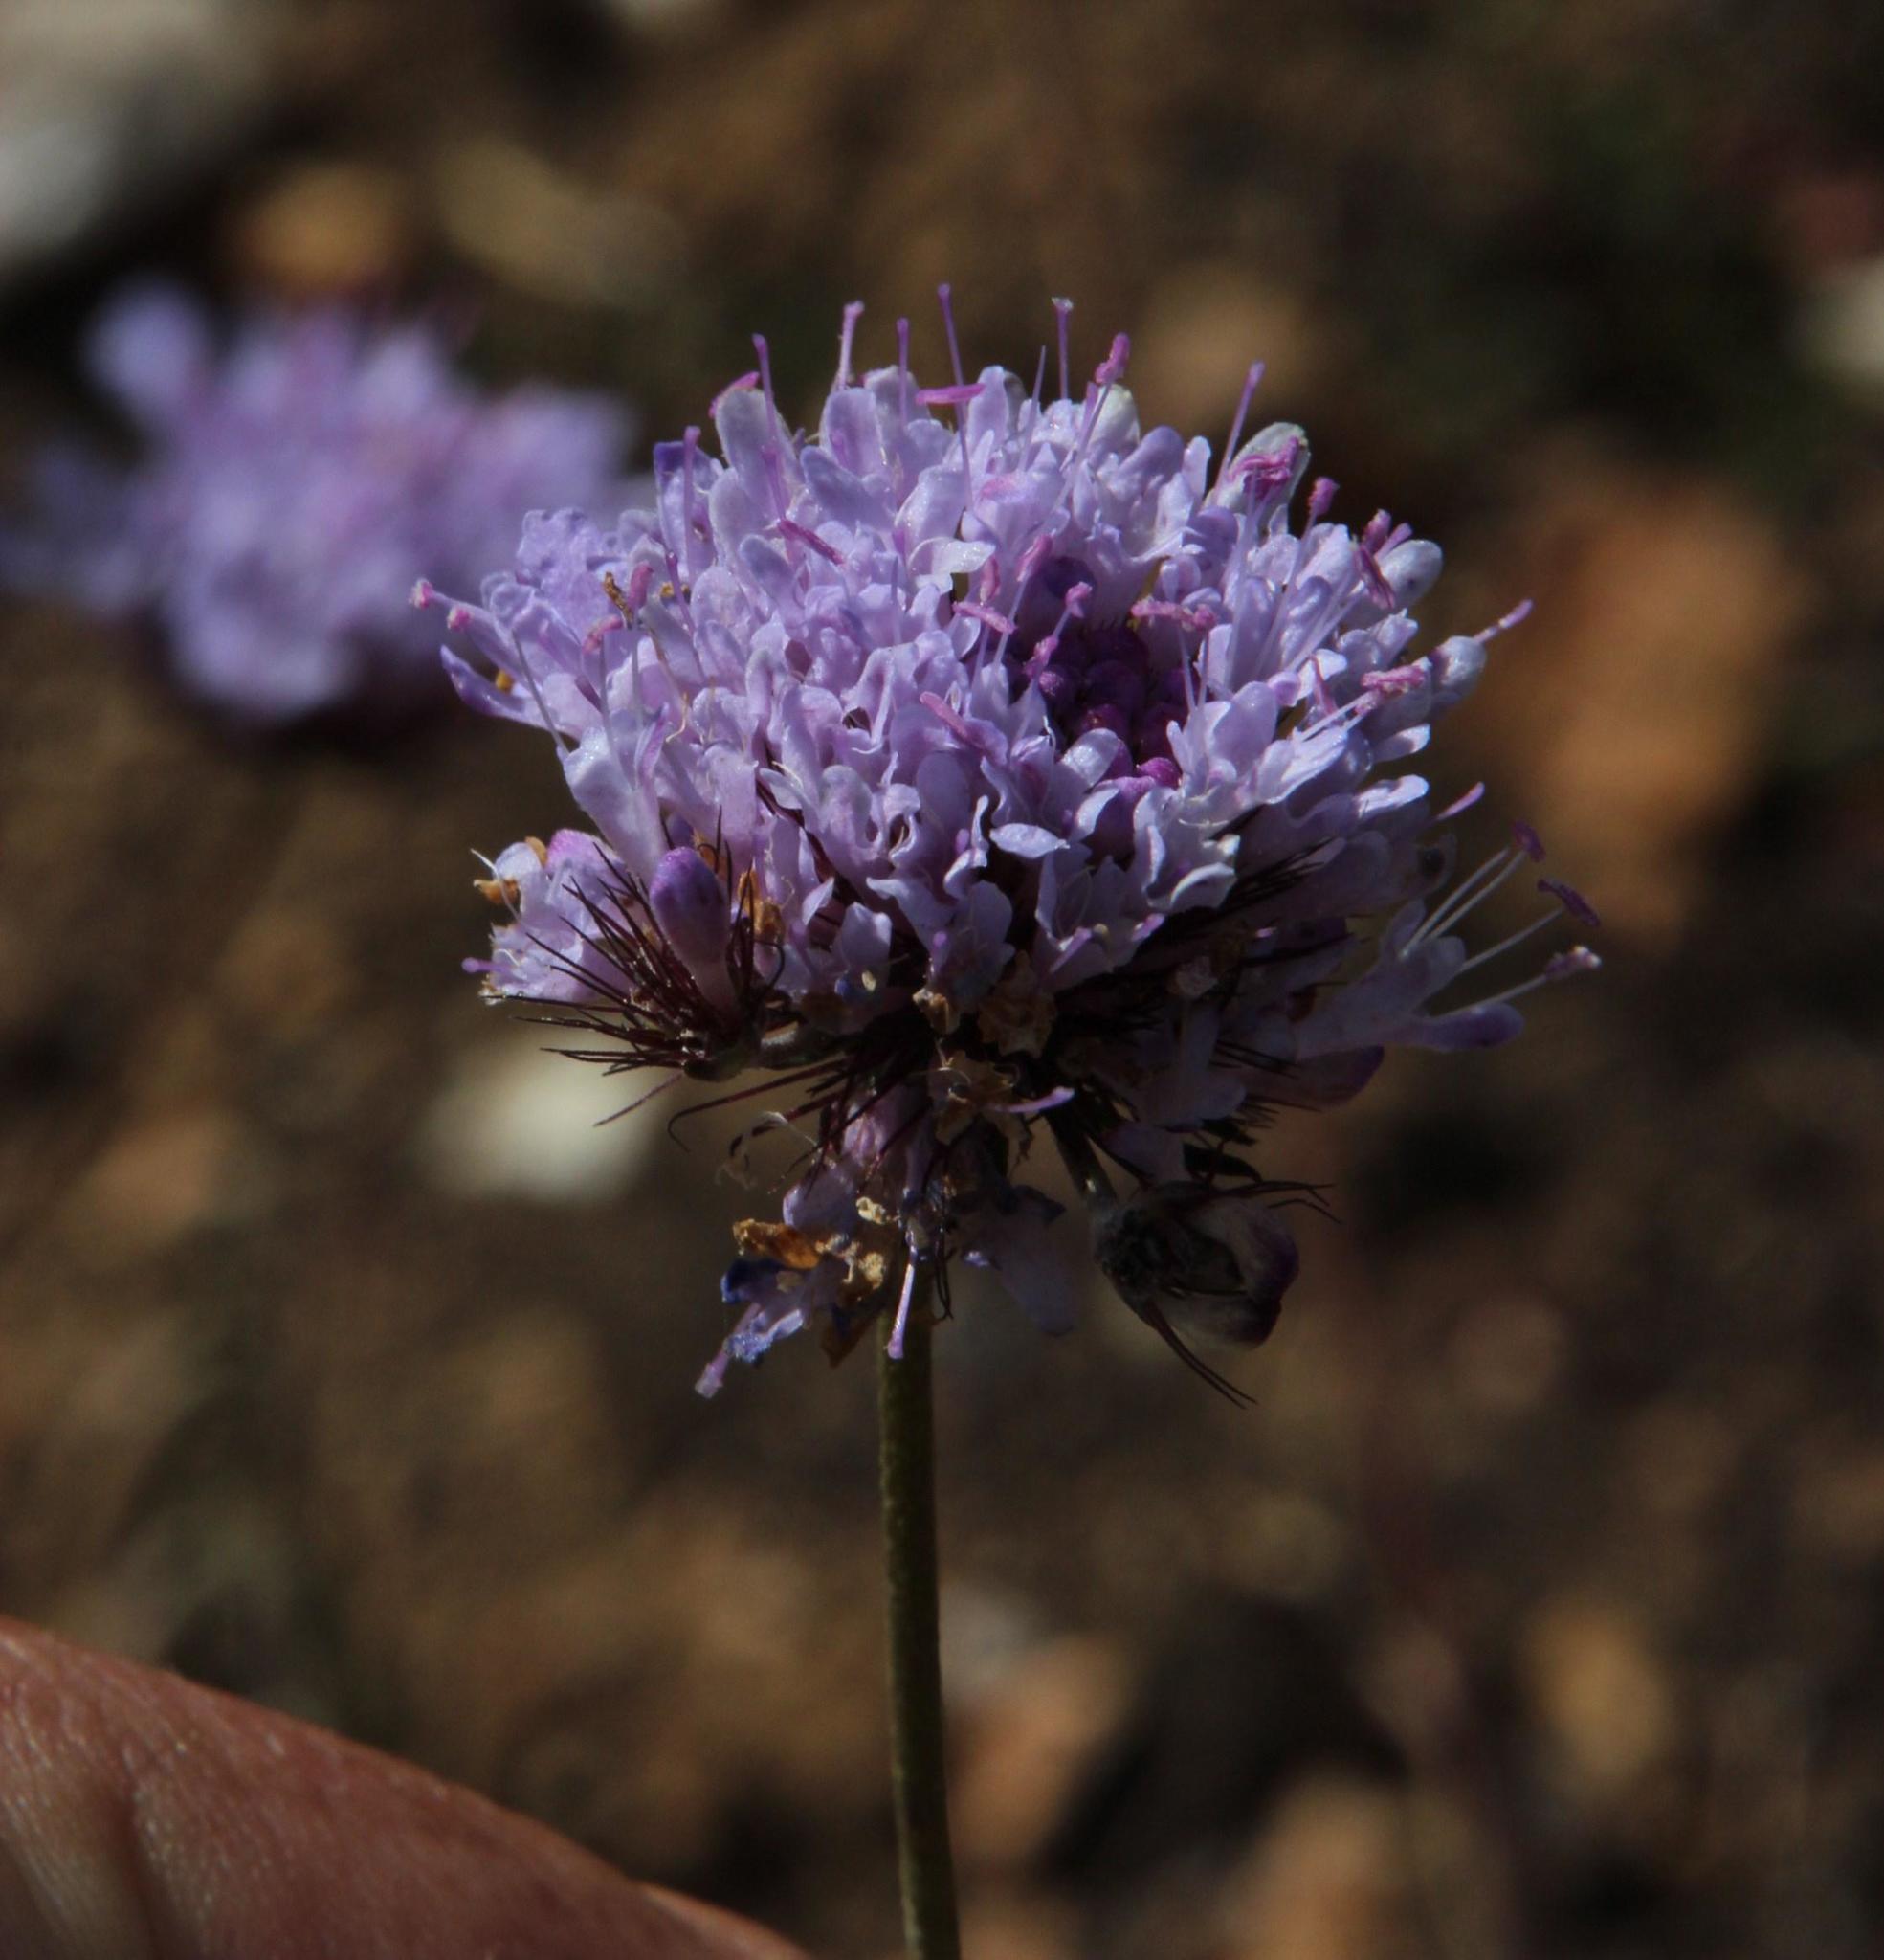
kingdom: Plantae
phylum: Tracheophyta
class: Magnoliopsida
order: Dipsacales
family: Caprifoliaceae
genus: Scabiosa
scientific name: Scabiosa columbaria
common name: Small scabious
